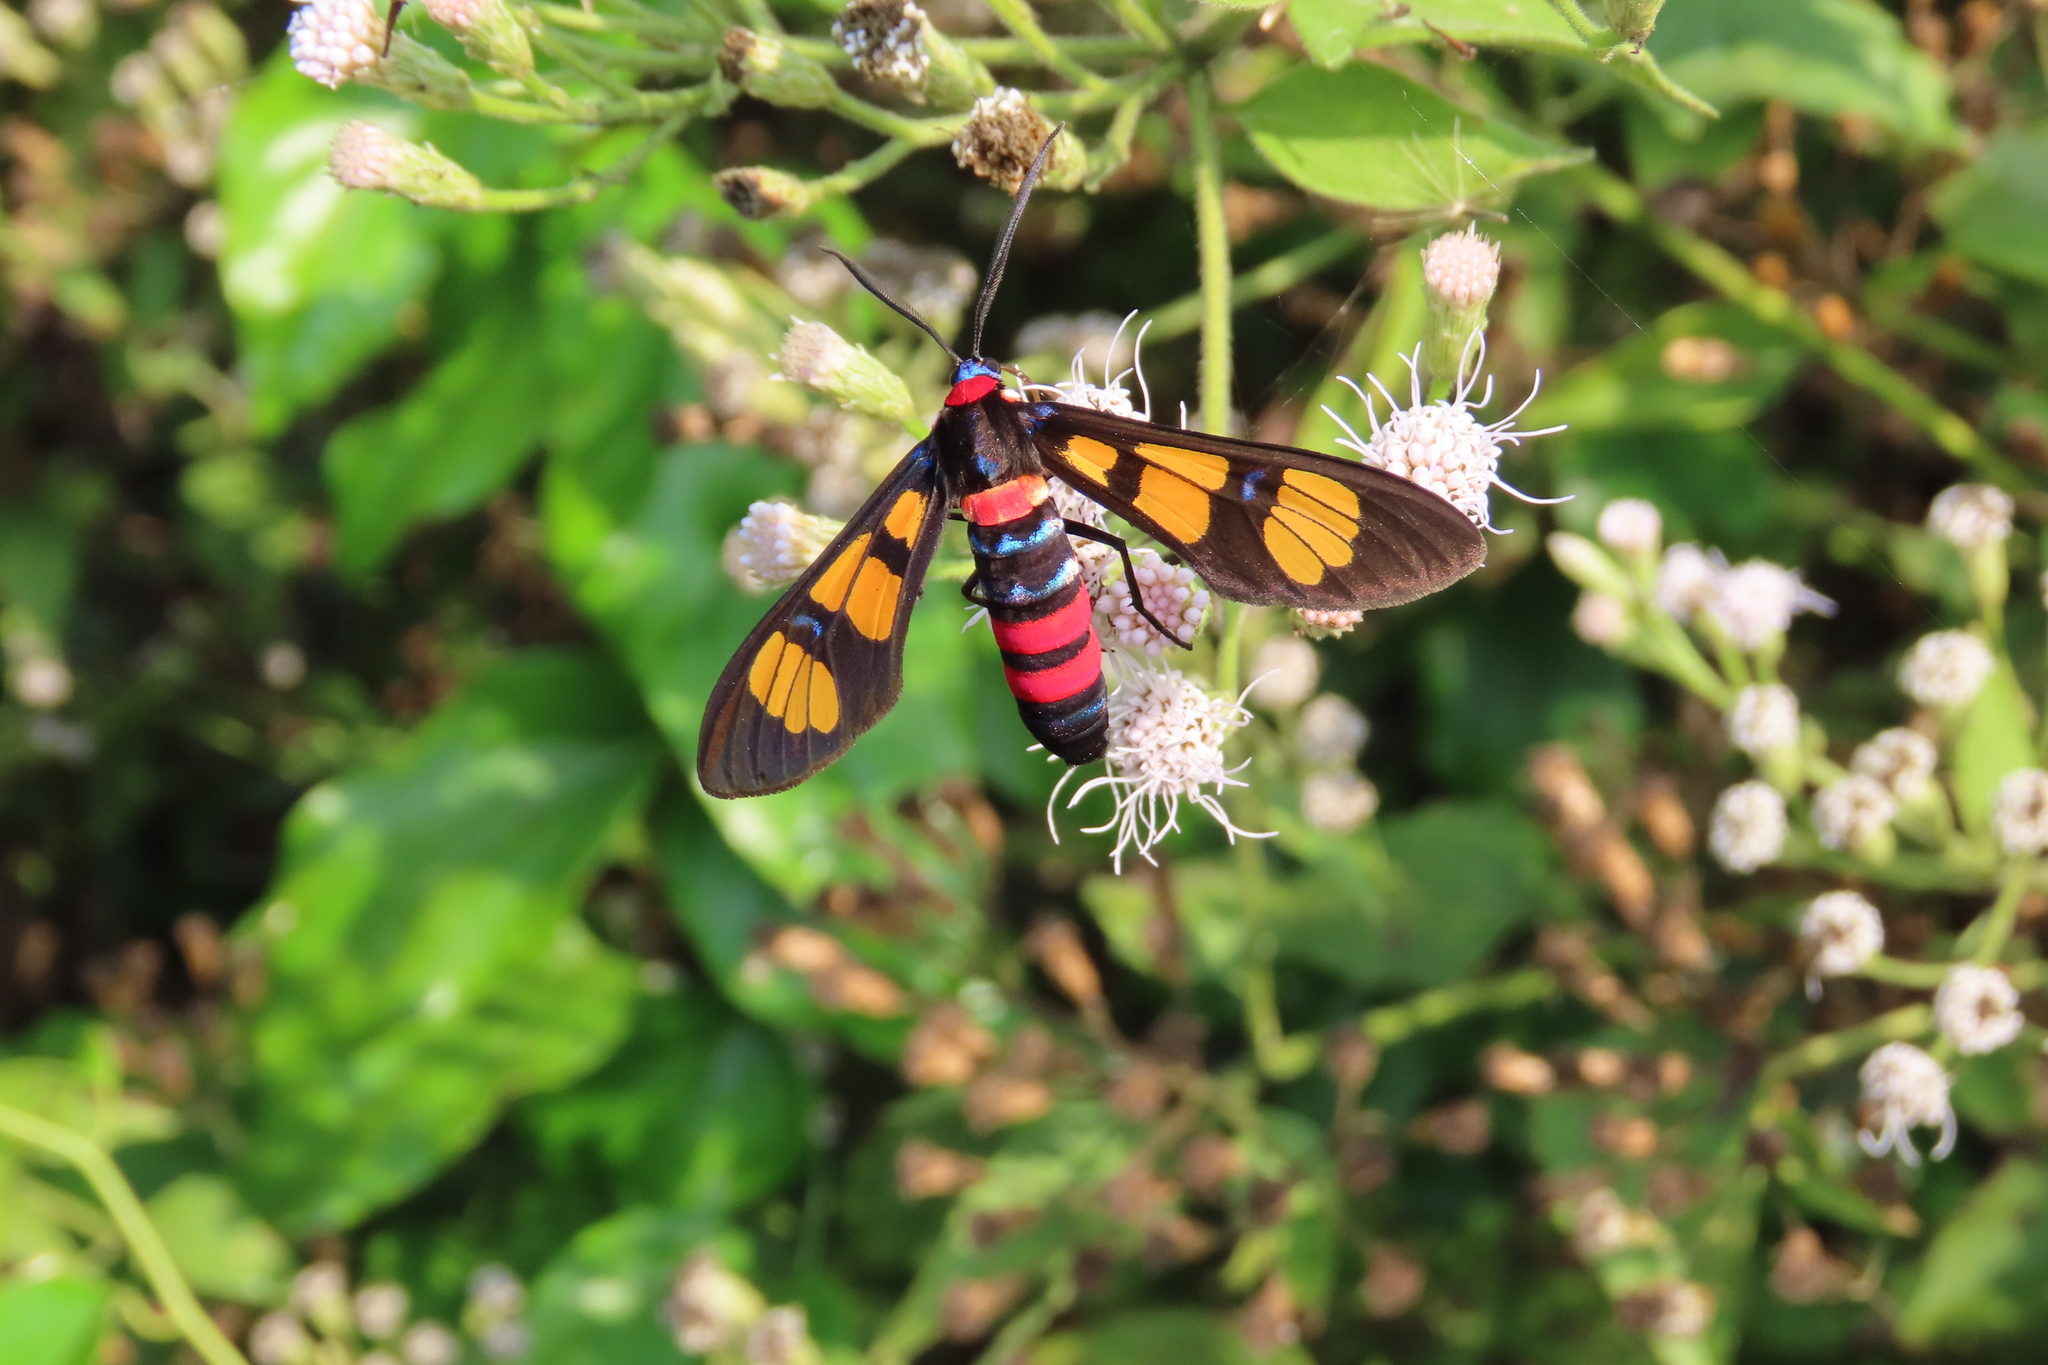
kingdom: Animalia
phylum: Arthropoda
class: Insecta
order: Lepidoptera
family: Erebidae
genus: Euchromia
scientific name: Euchromia polymena
